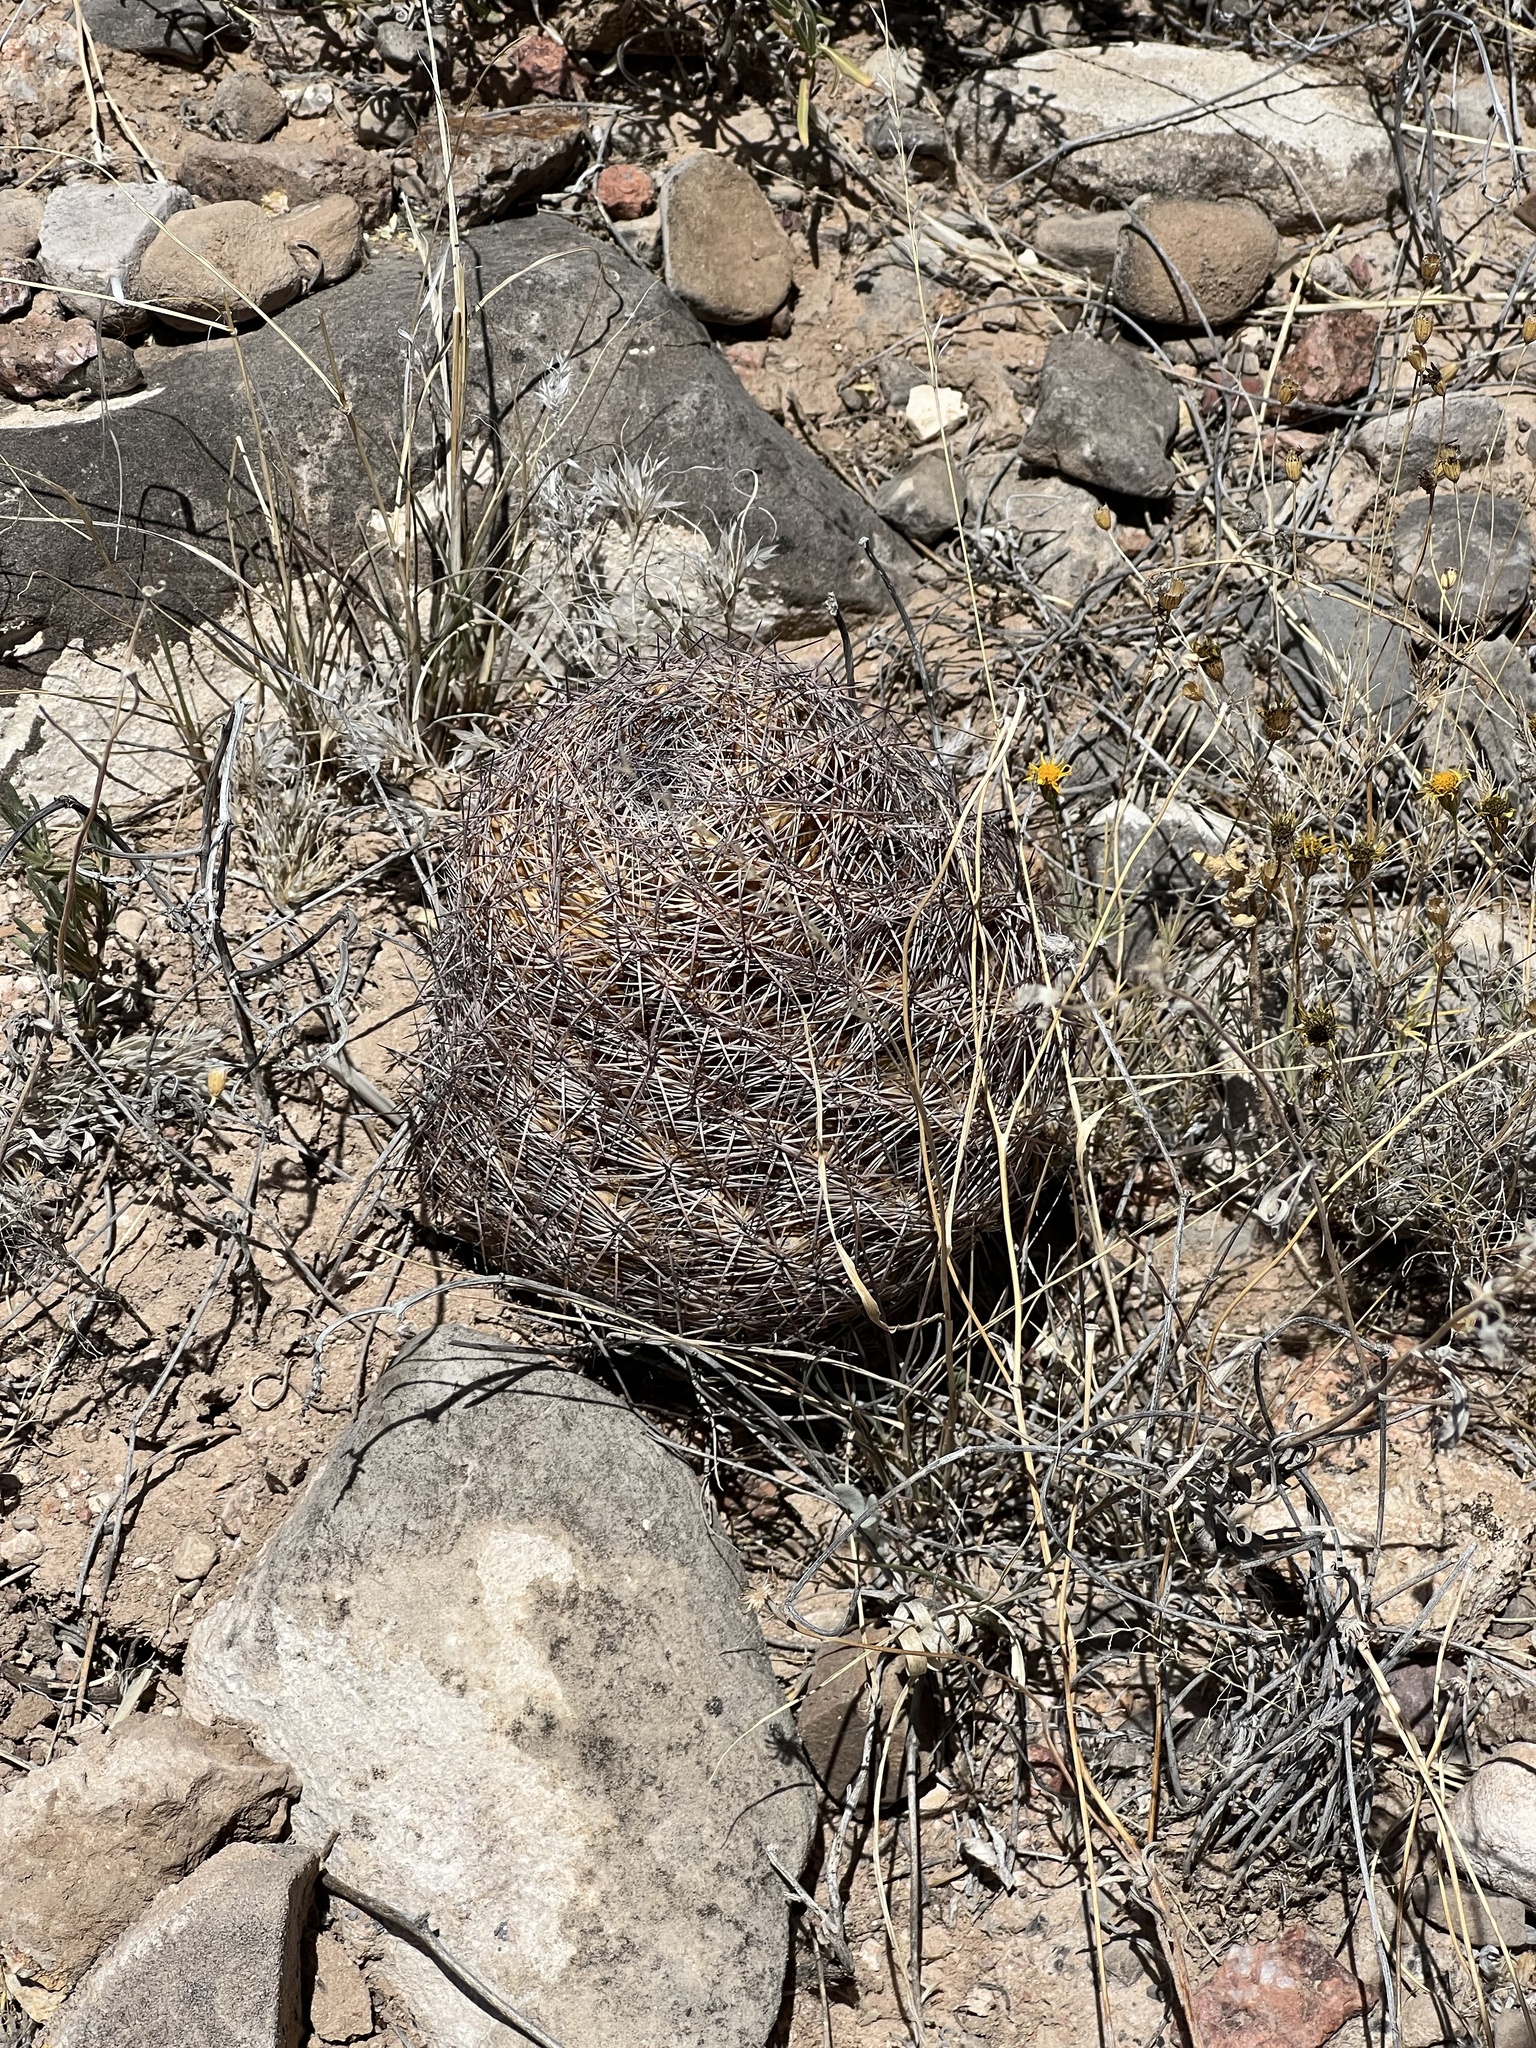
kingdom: Plantae
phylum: Tracheophyta
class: Magnoliopsida
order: Caryophyllales
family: Cactaceae
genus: Sclerocactus
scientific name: Sclerocactus intertextus
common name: White fish-hook cactus
